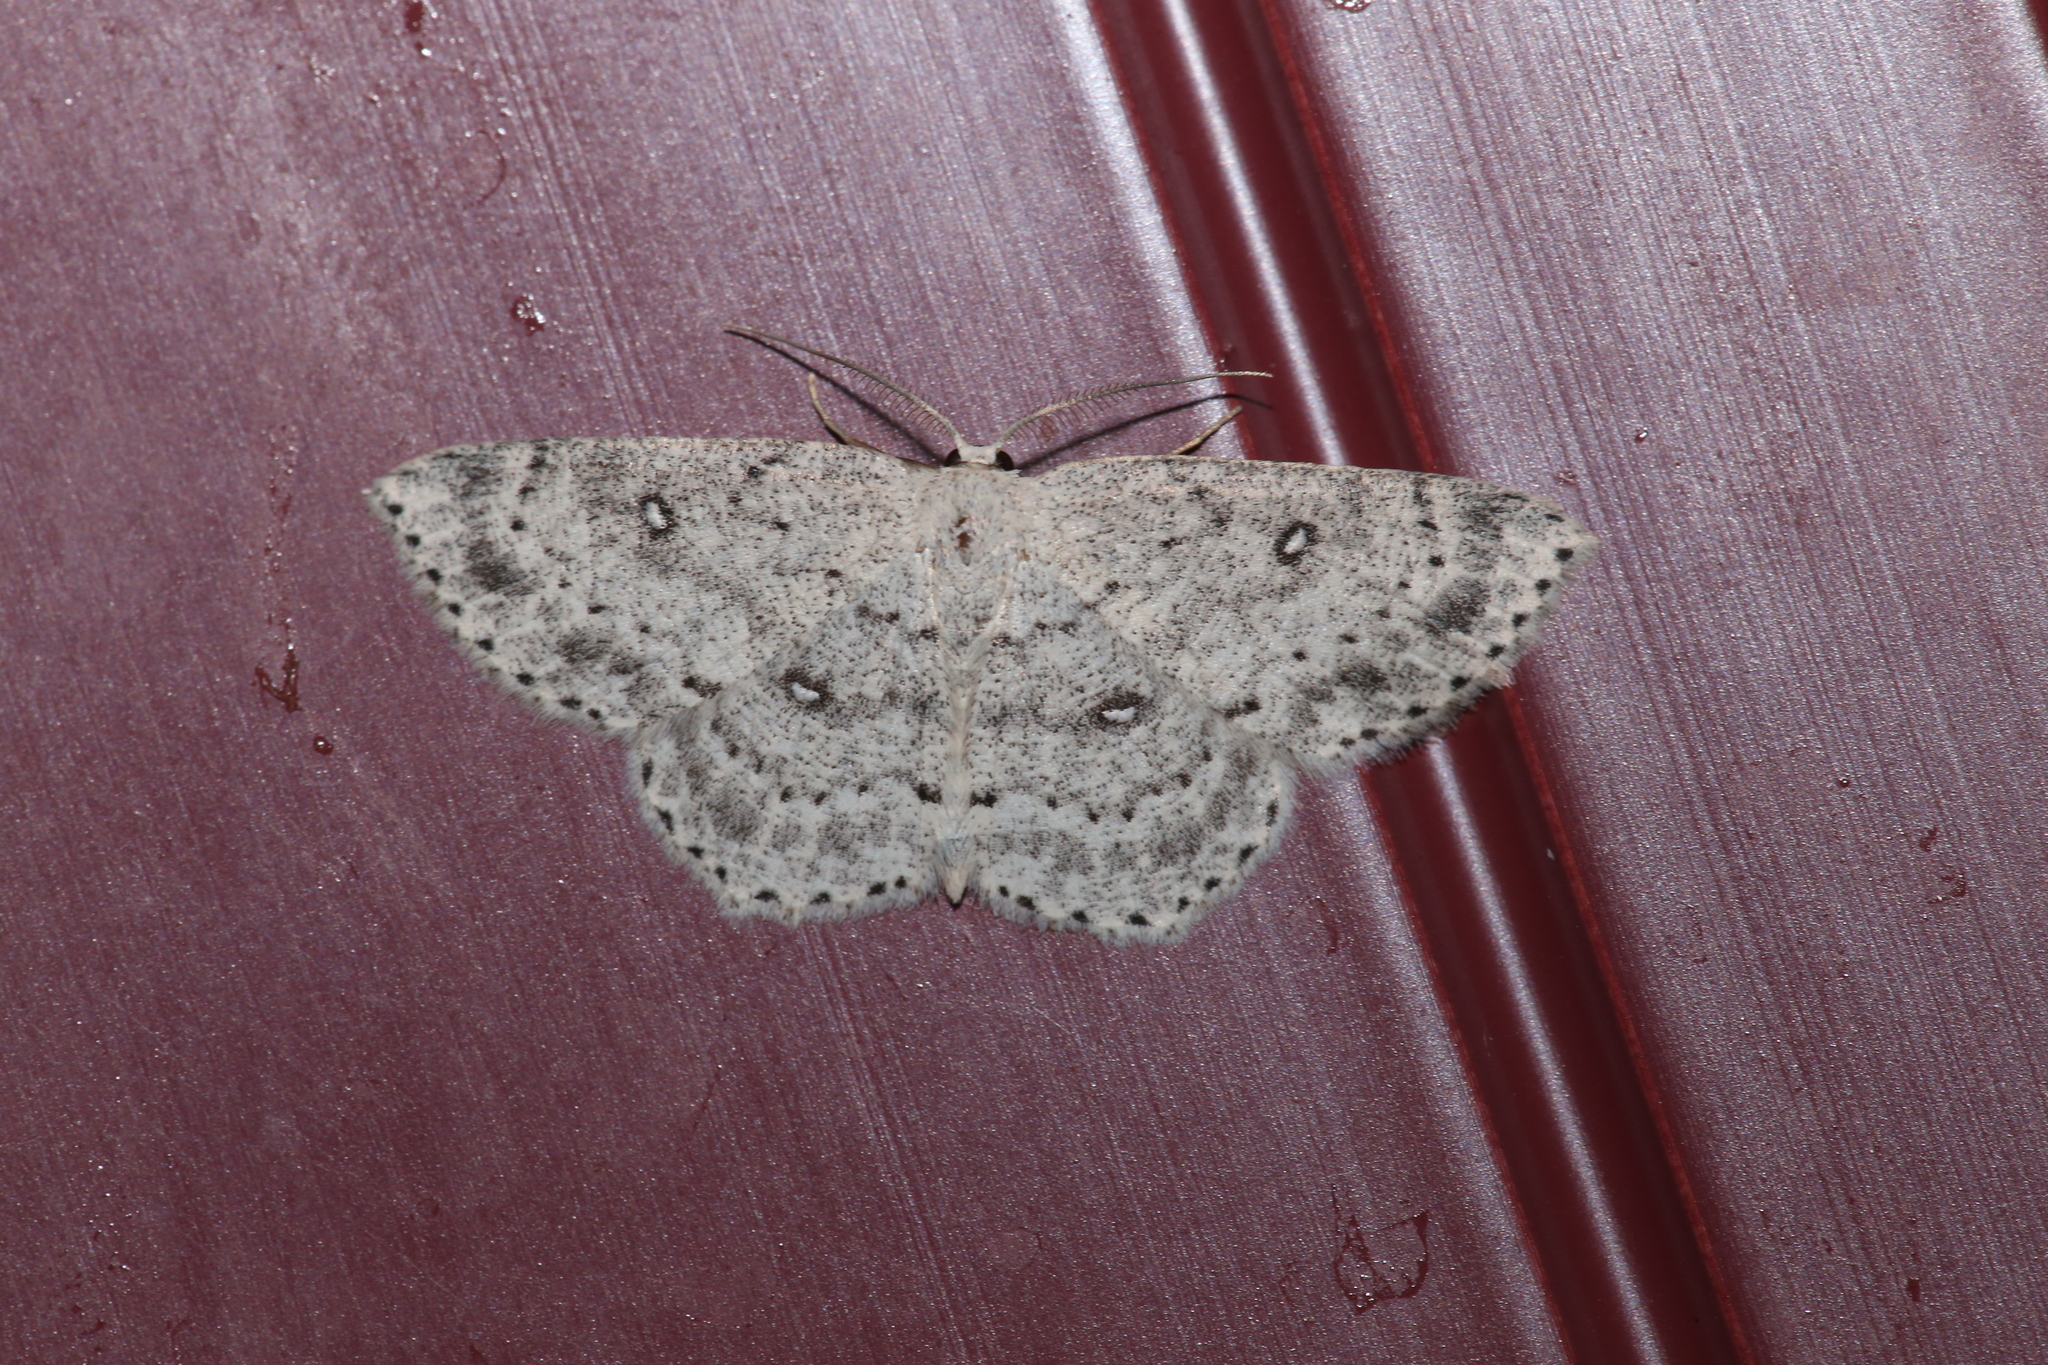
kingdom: Animalia
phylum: Arthropoda
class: Insecta
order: Lepidoptera
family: Geometridae
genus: Cyclophora
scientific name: Cyclophora pendulinaria
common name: Sweet fern geometer
